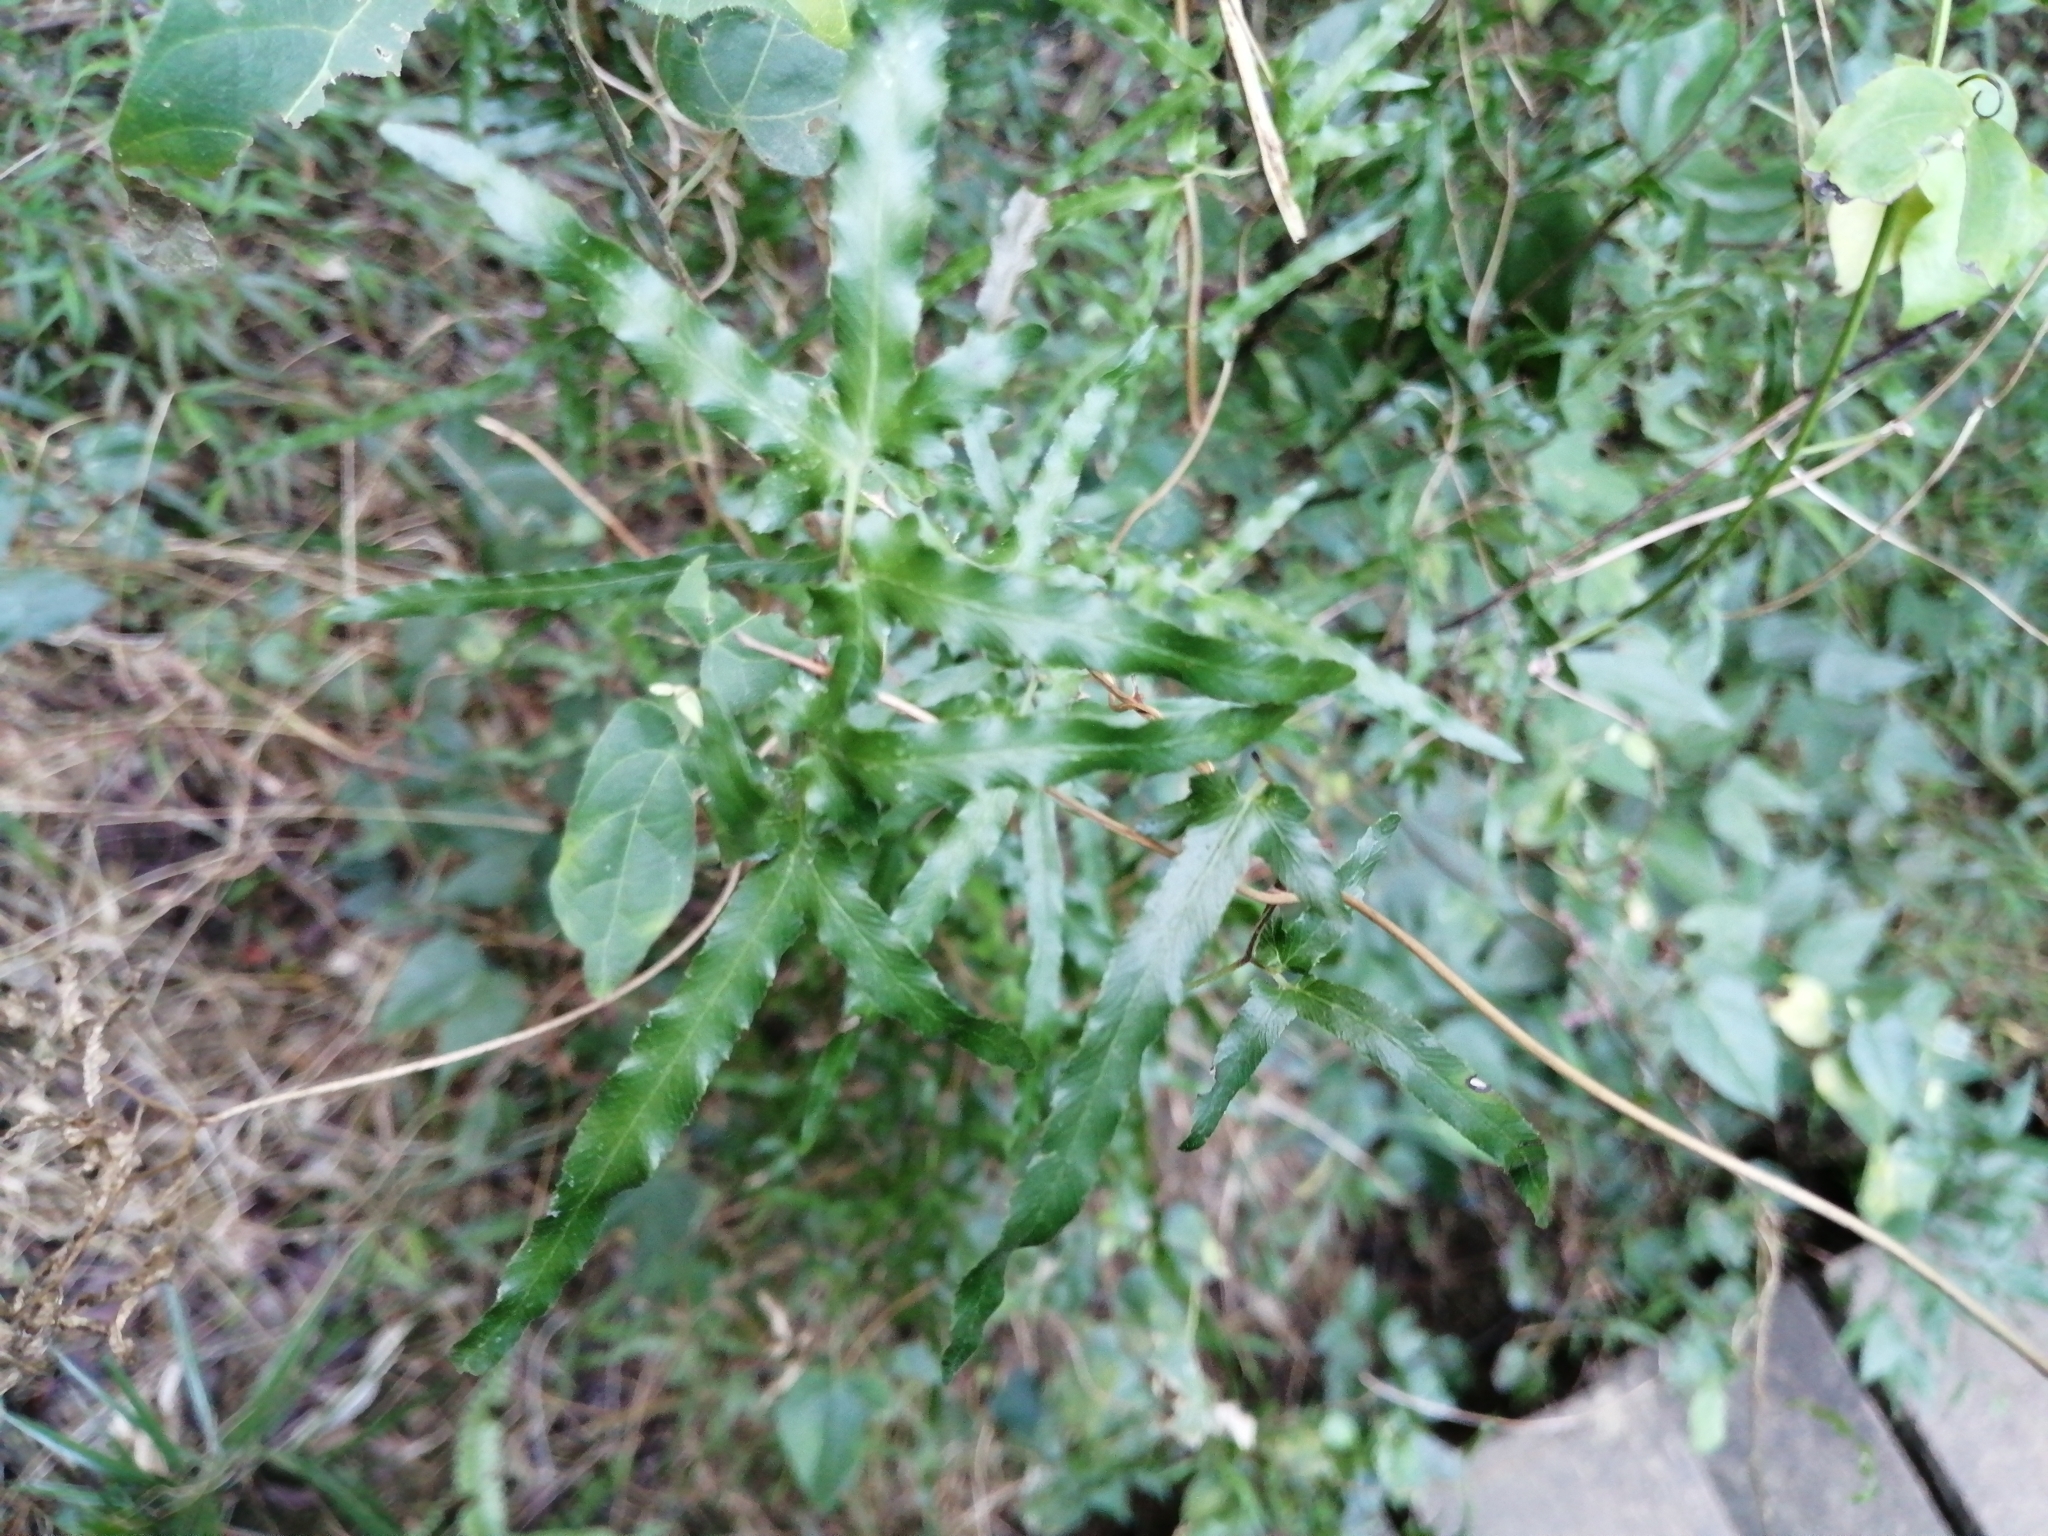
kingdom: Plantae
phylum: Tracheophyta
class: Polypodiopsida
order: Schizaeales
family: Lygodiaceae
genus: Lygodium
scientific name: Lygodium japonicum
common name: Japanese climbing fern
